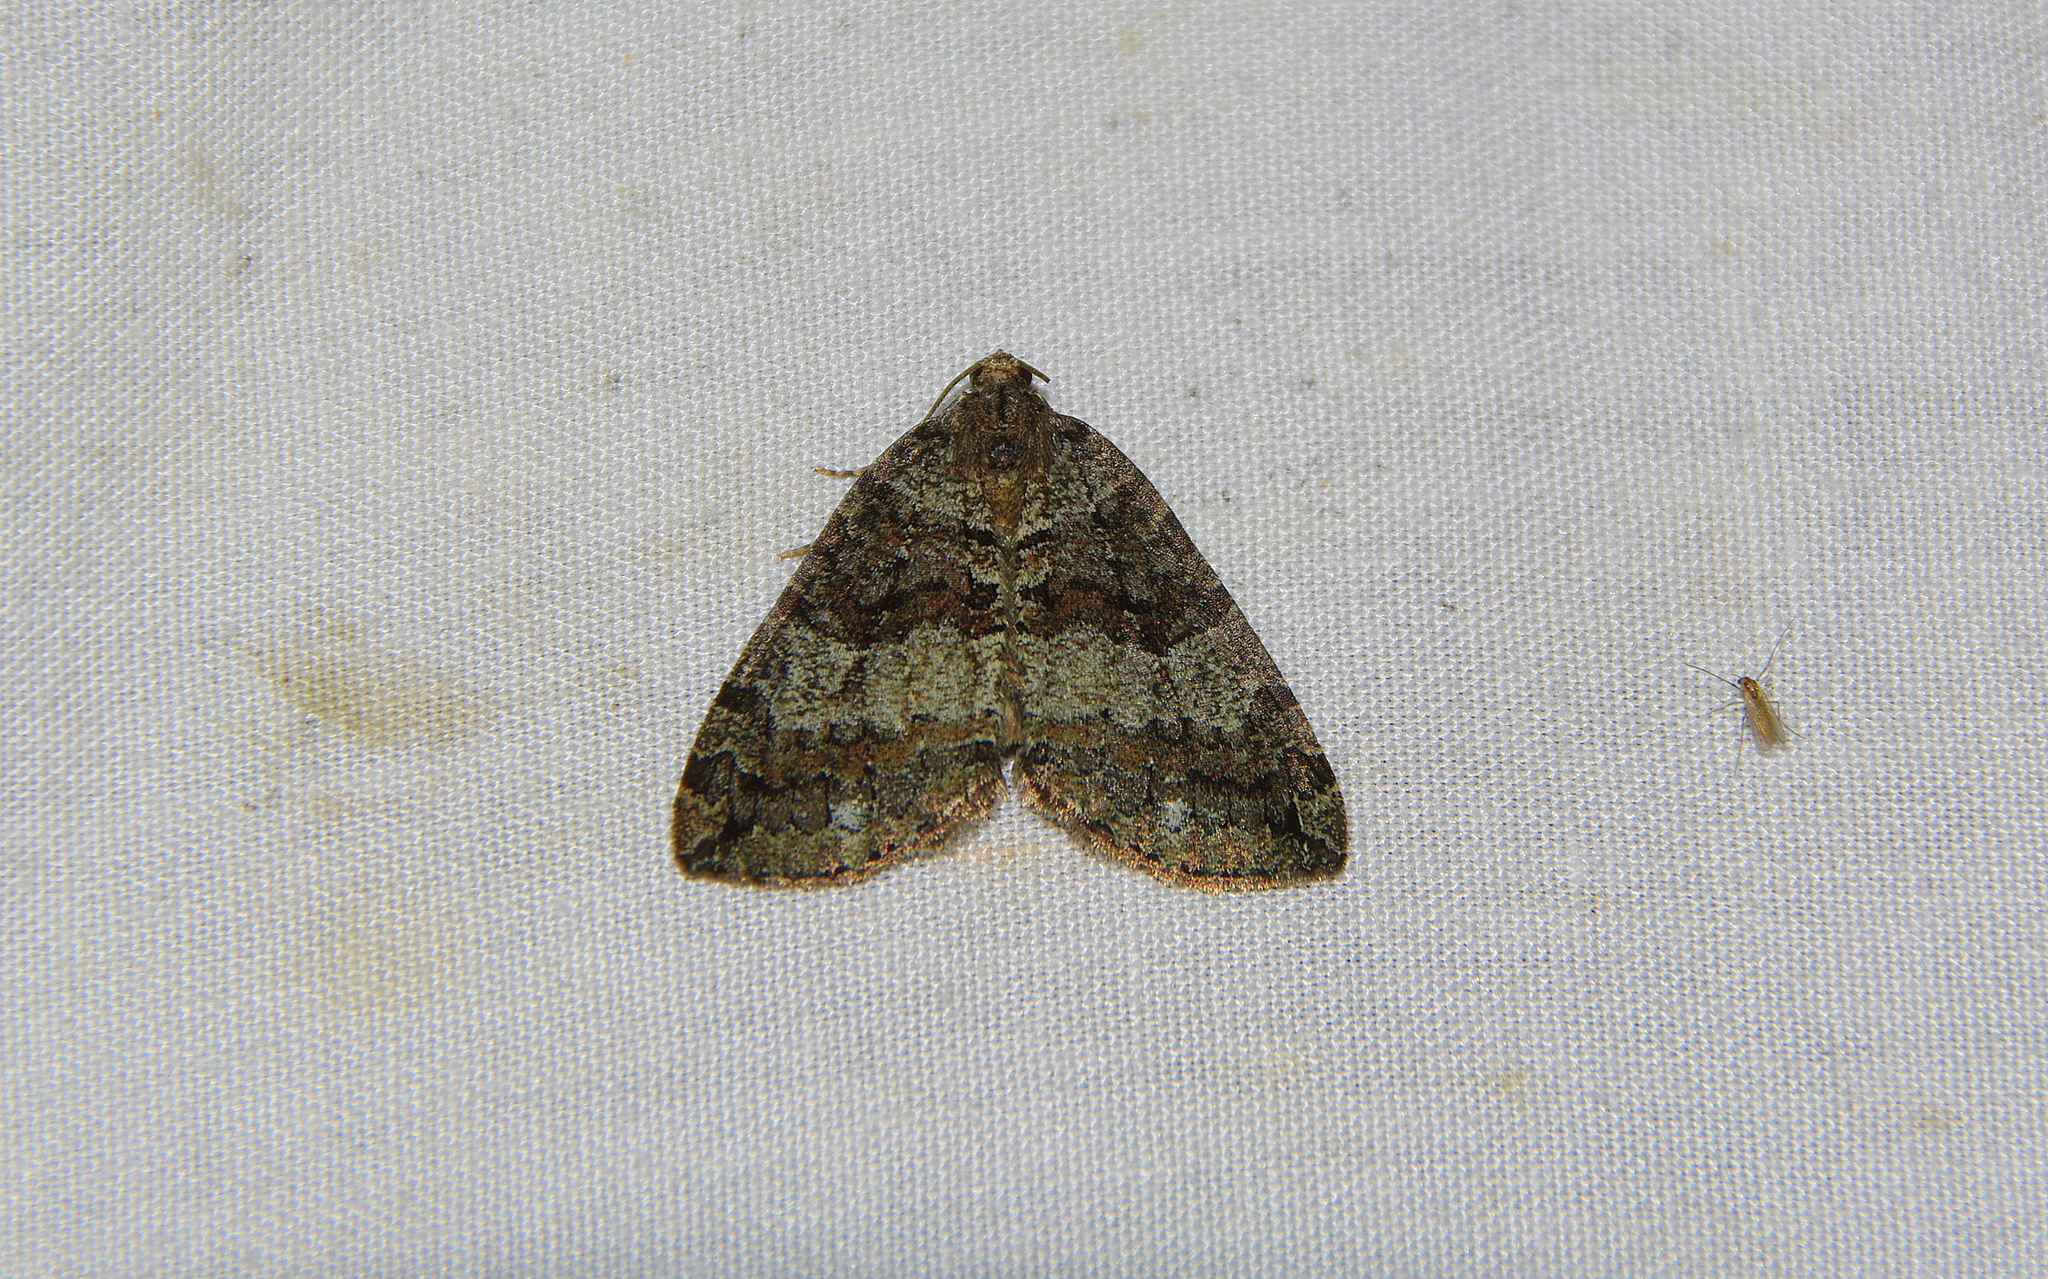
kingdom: Animalia
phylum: Arthropoda
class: Insecta
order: Lepidoptera
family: Geometridae
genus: Hydriomena
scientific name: Hydriomena furcata
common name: July highflyer
